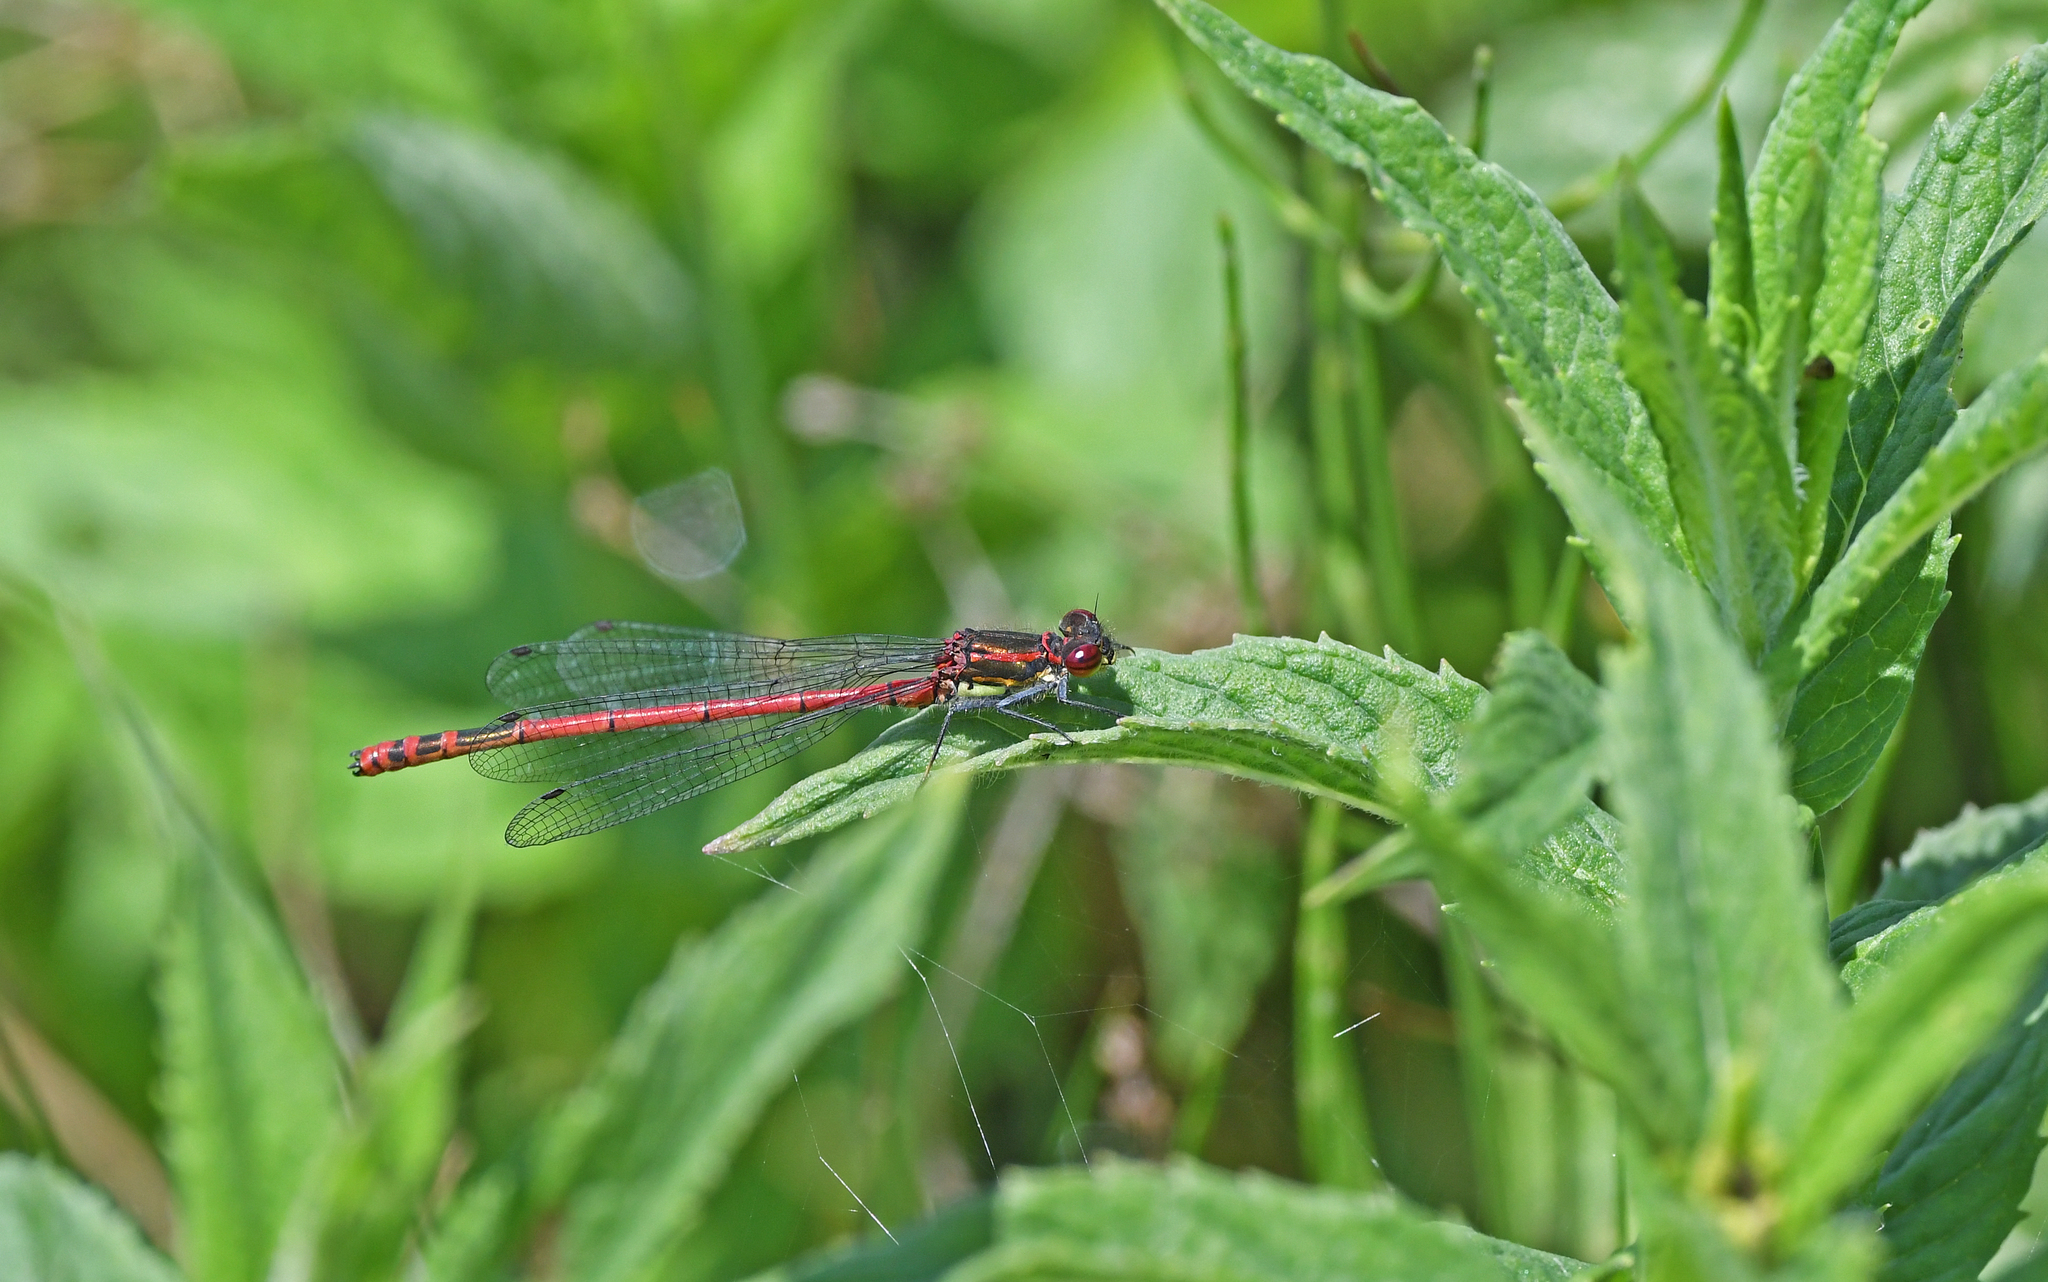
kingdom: Animalia
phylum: Arthropoda
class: Insecta
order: Odonata
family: Coenagrionidae
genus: Pyrrhosoma
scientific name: Pyrrhosoma nymphula
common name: Large red damsel
